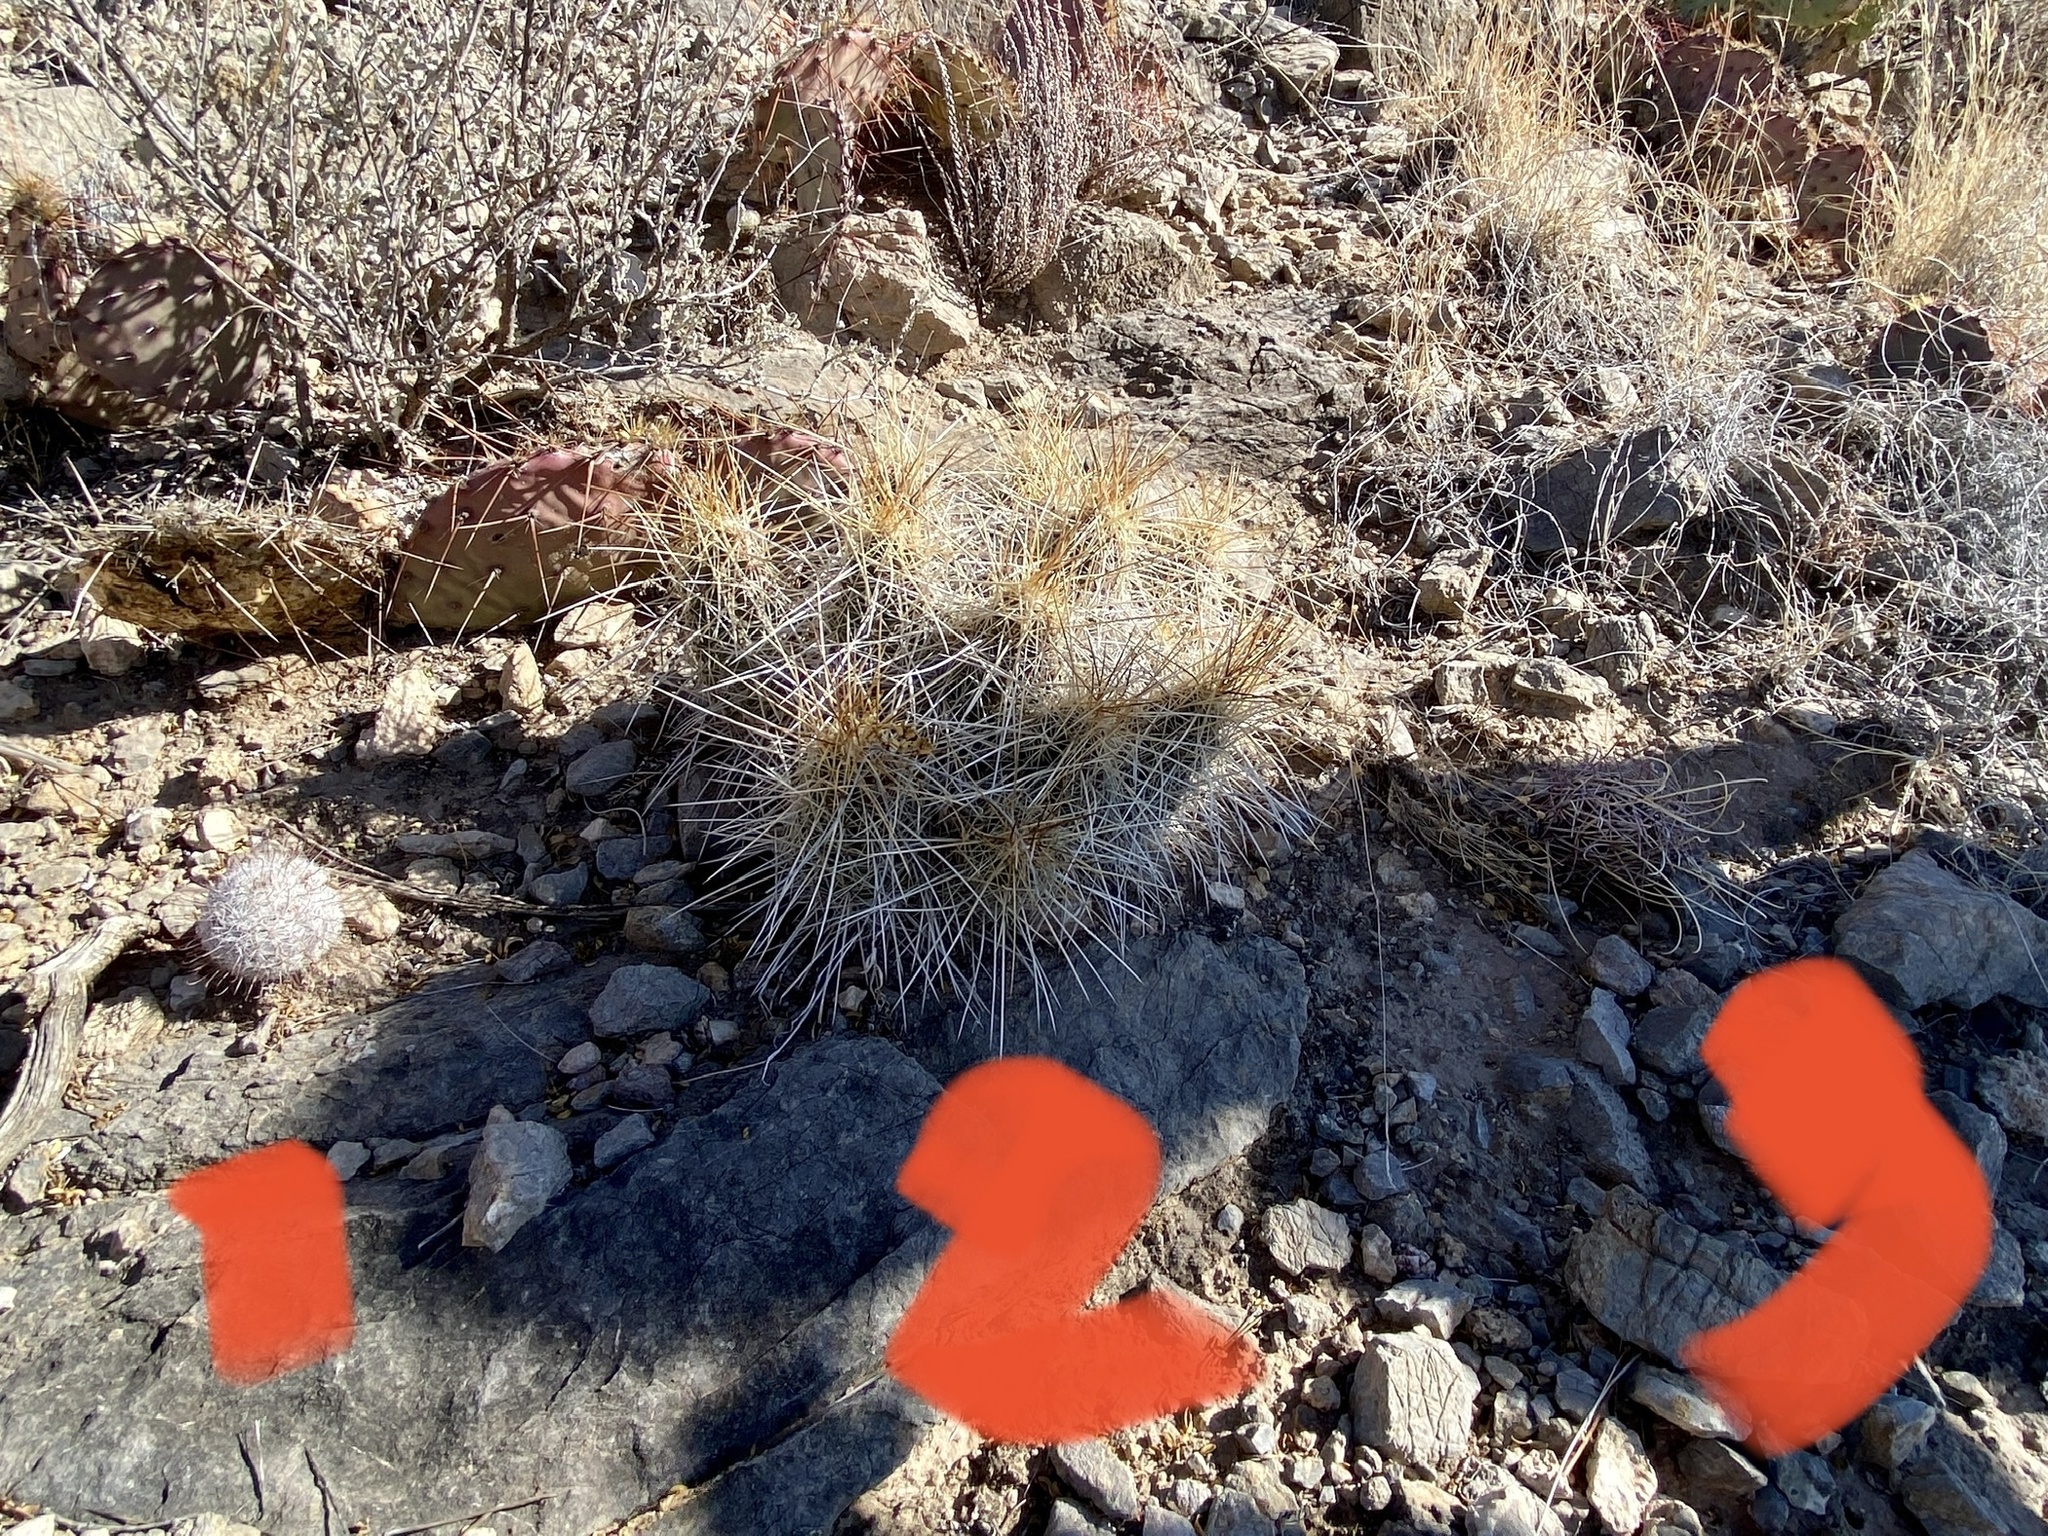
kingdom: Plantae
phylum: Tracheophyta
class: Magnoliopsida
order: Caryophyllales
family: Cactaceae
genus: Ferocactus
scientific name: Ferocactus uncinatus
